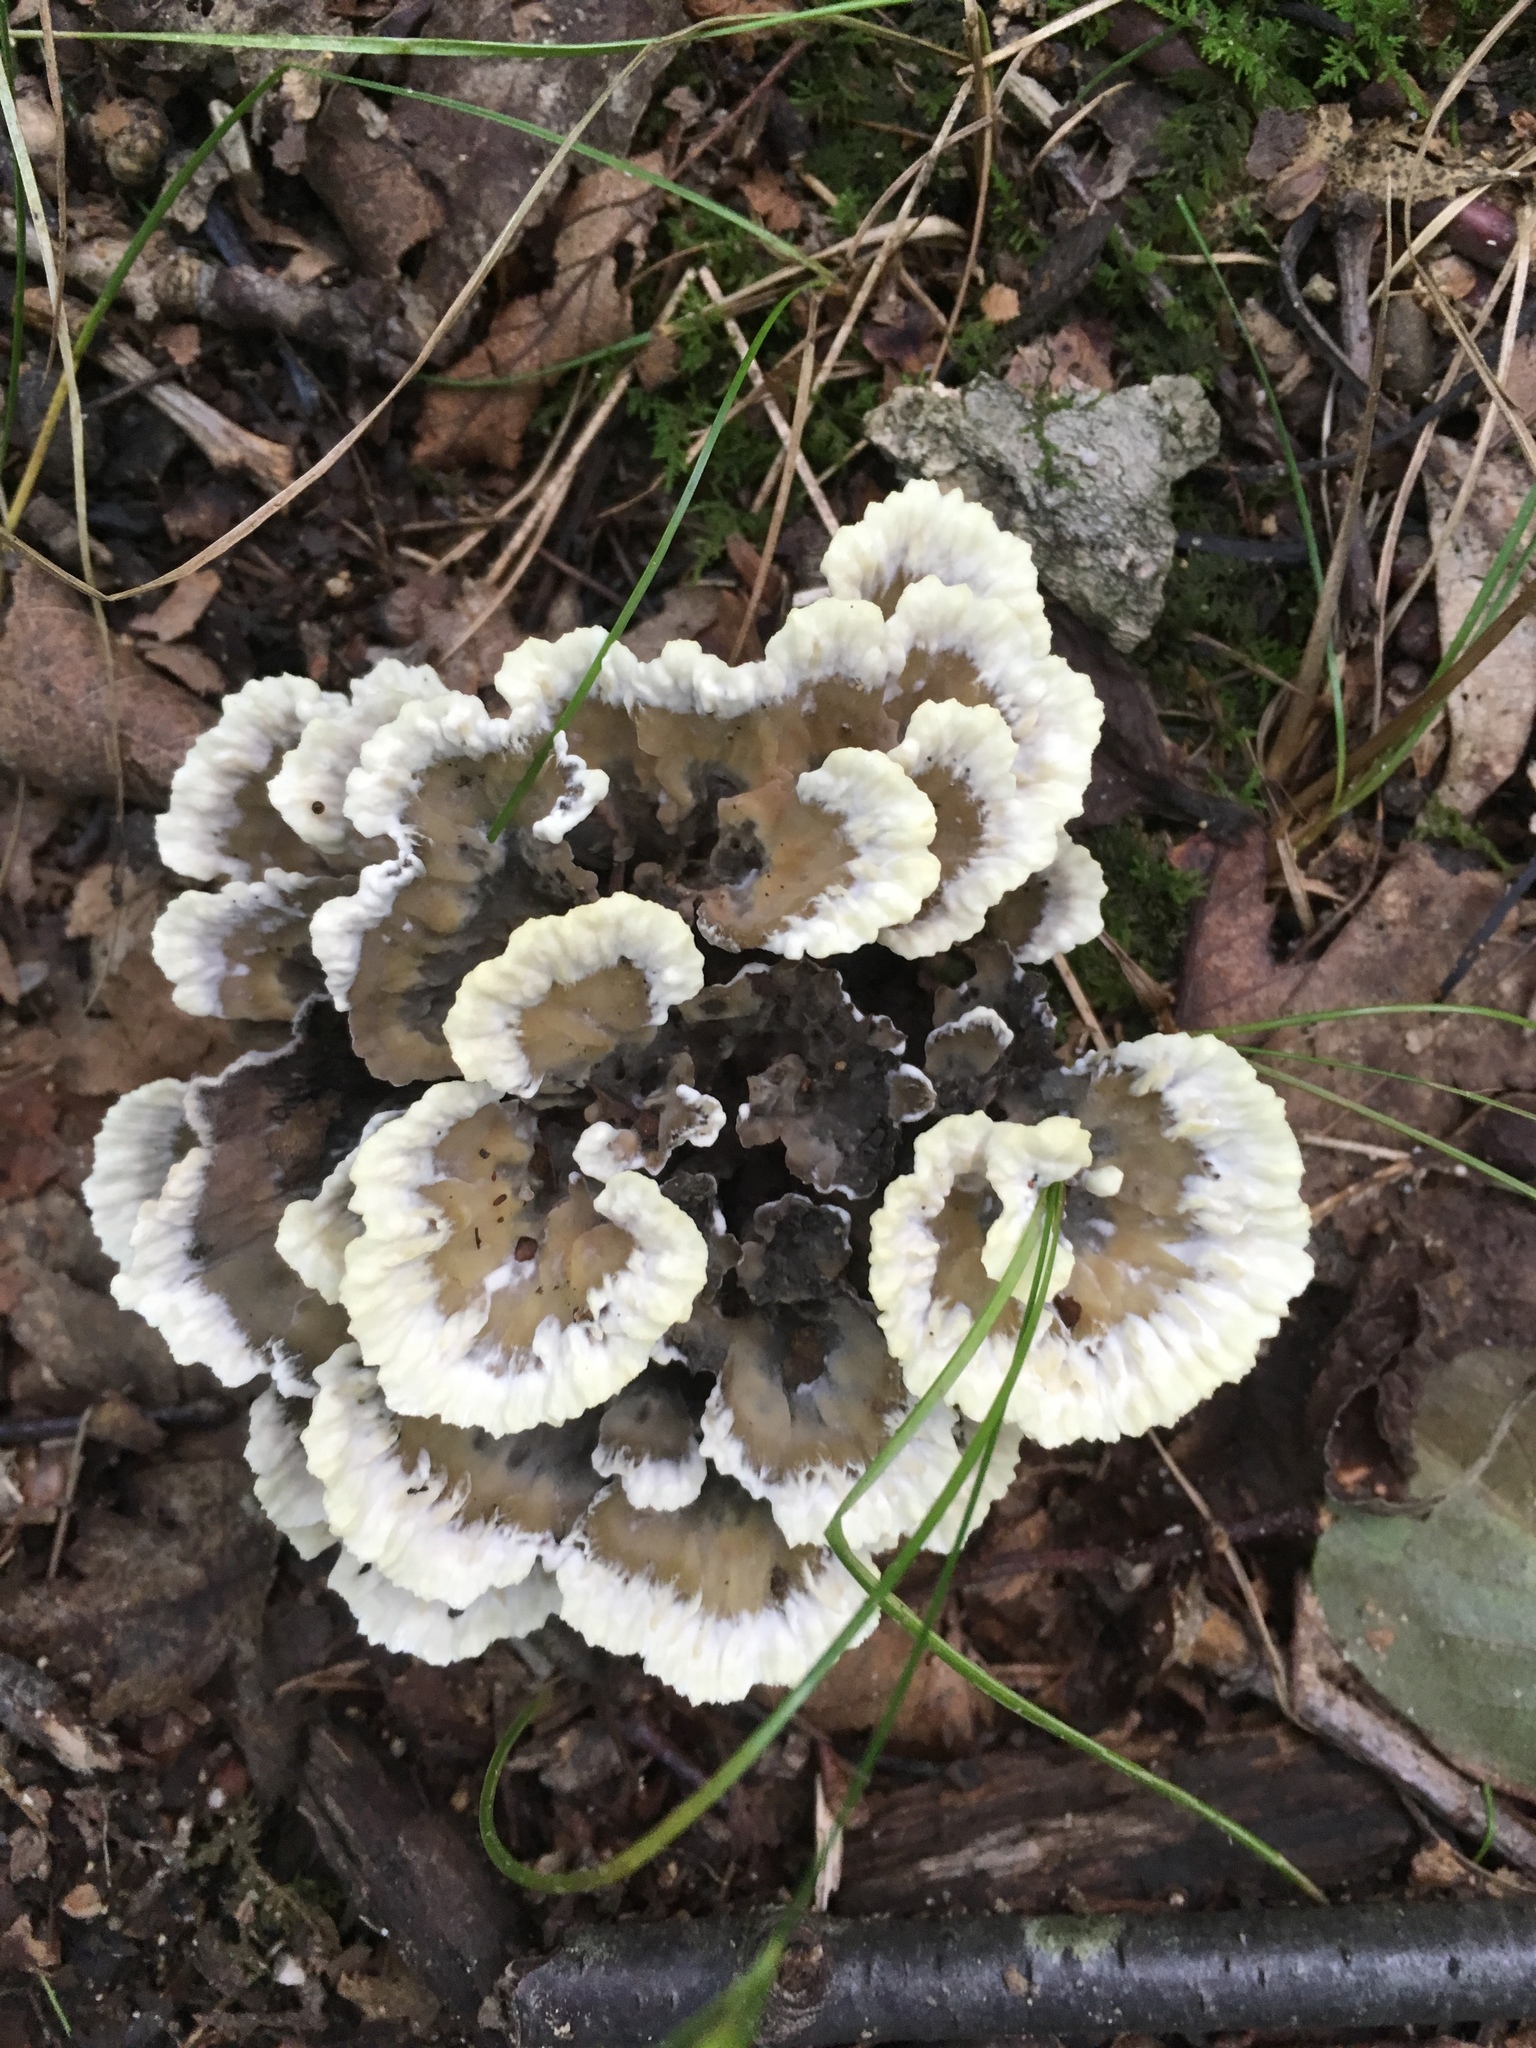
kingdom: Fungi
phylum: Basidiomycota
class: Agaricomycetes
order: Thelephorales
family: Thelephoraceae
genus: Thelephora
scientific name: Thelephora terrestris
